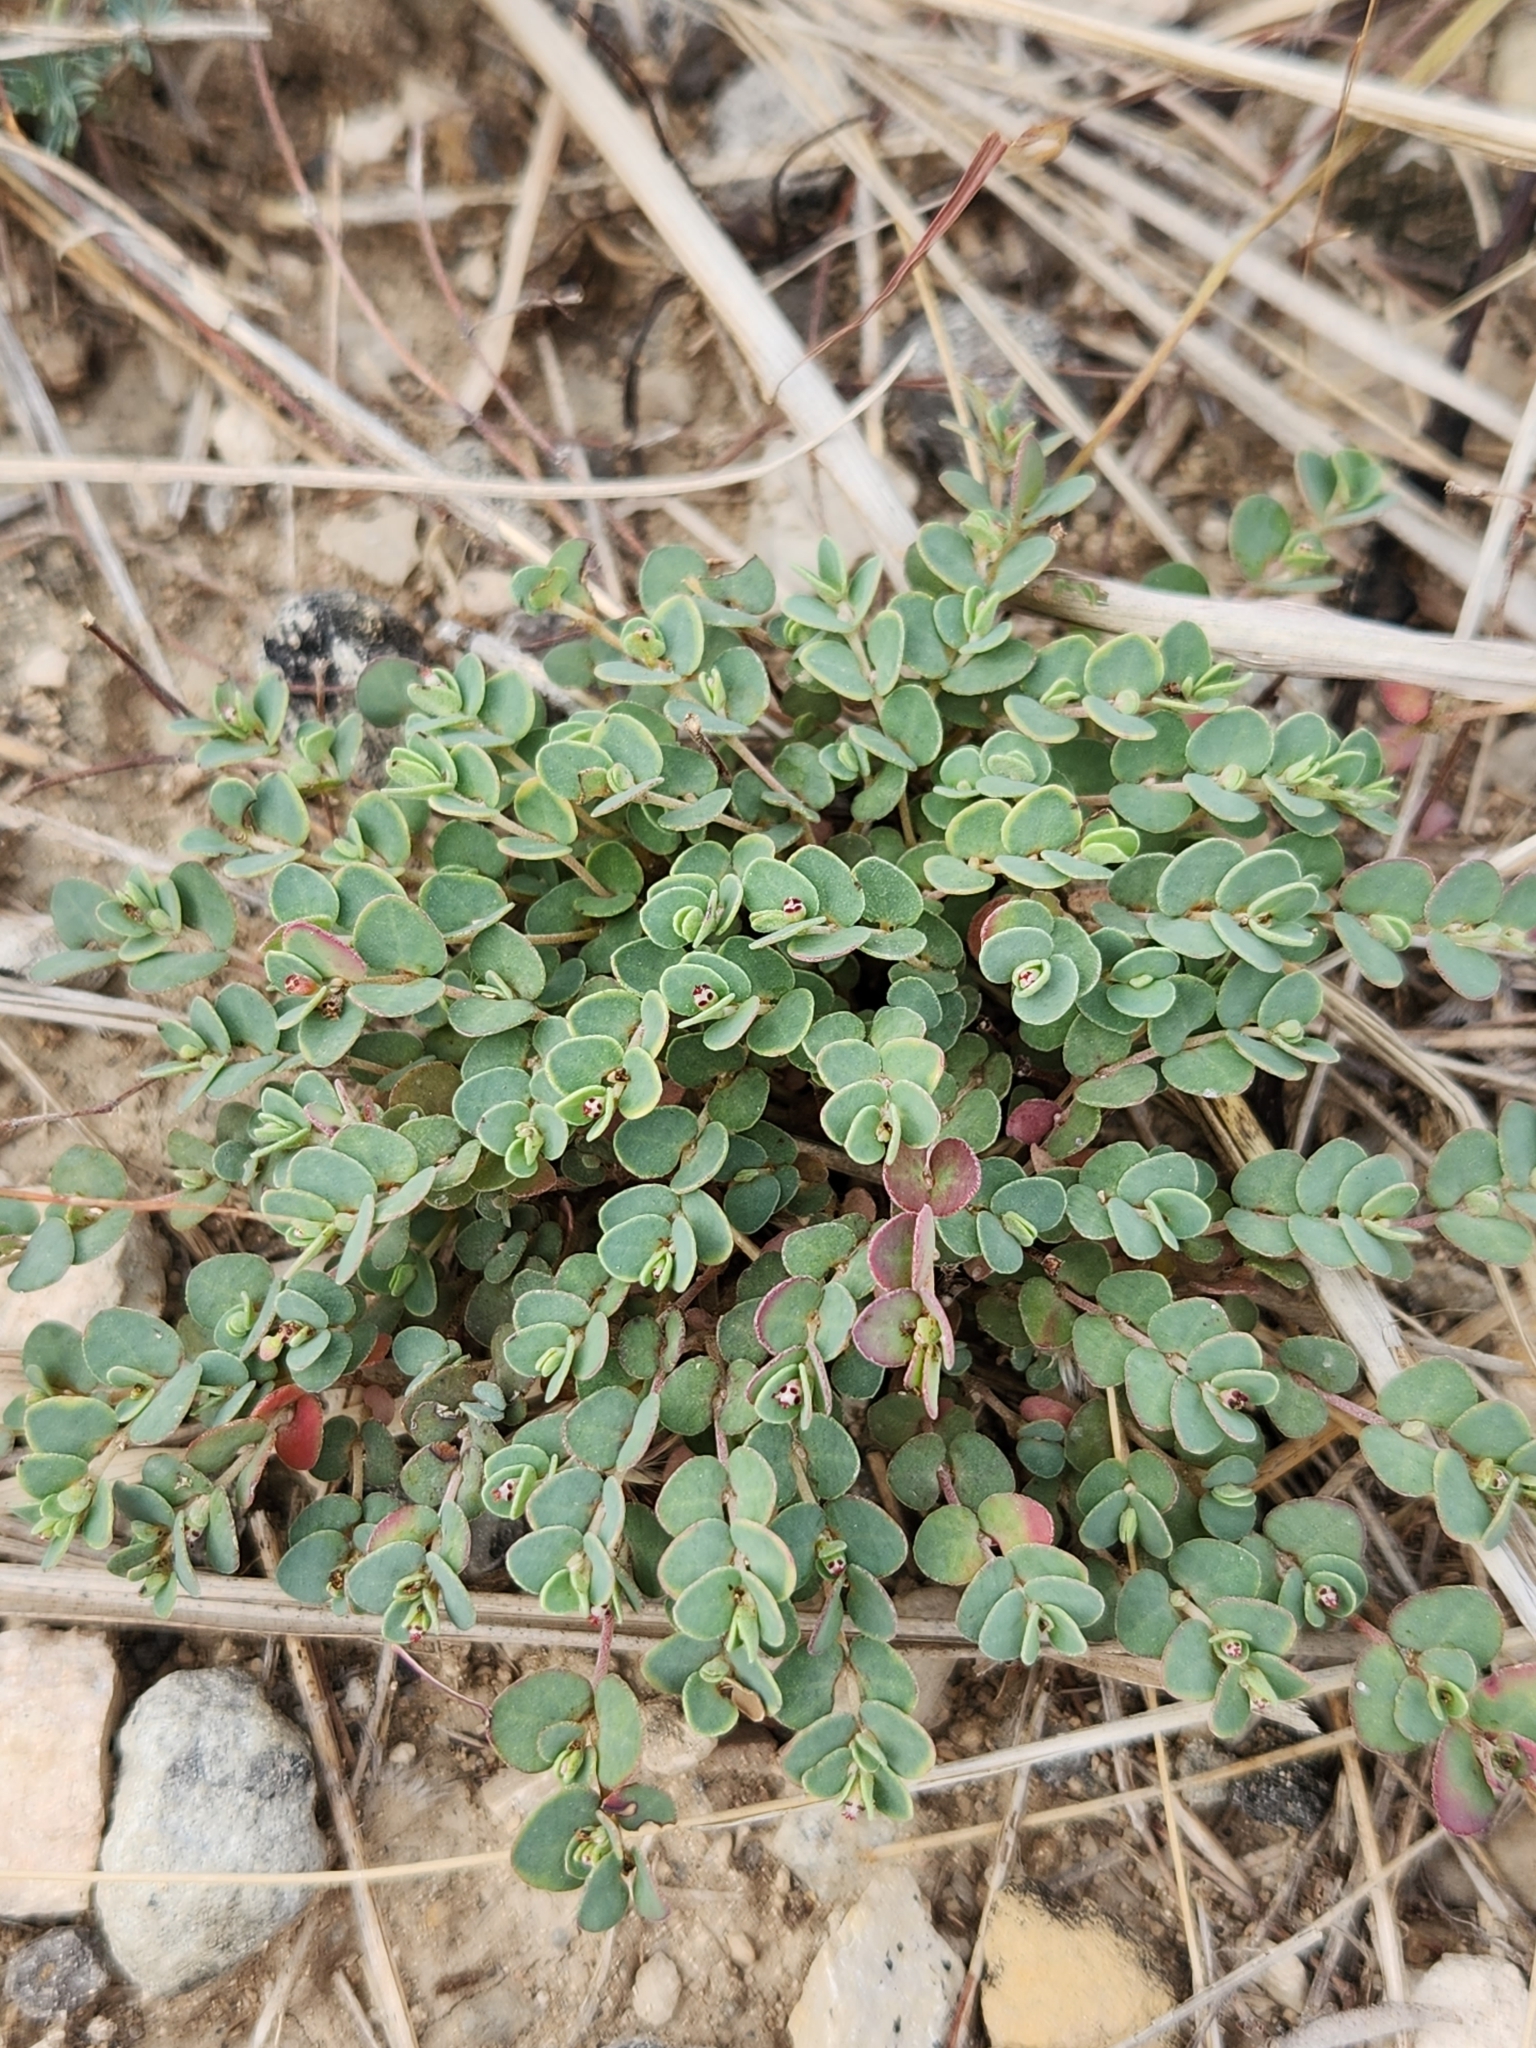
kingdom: Plantae
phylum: Tracheophyta
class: Magnoliopsida
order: Malpighiales
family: Euphorbiaceae
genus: Euphorbia
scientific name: Euphorbia cinerascens
